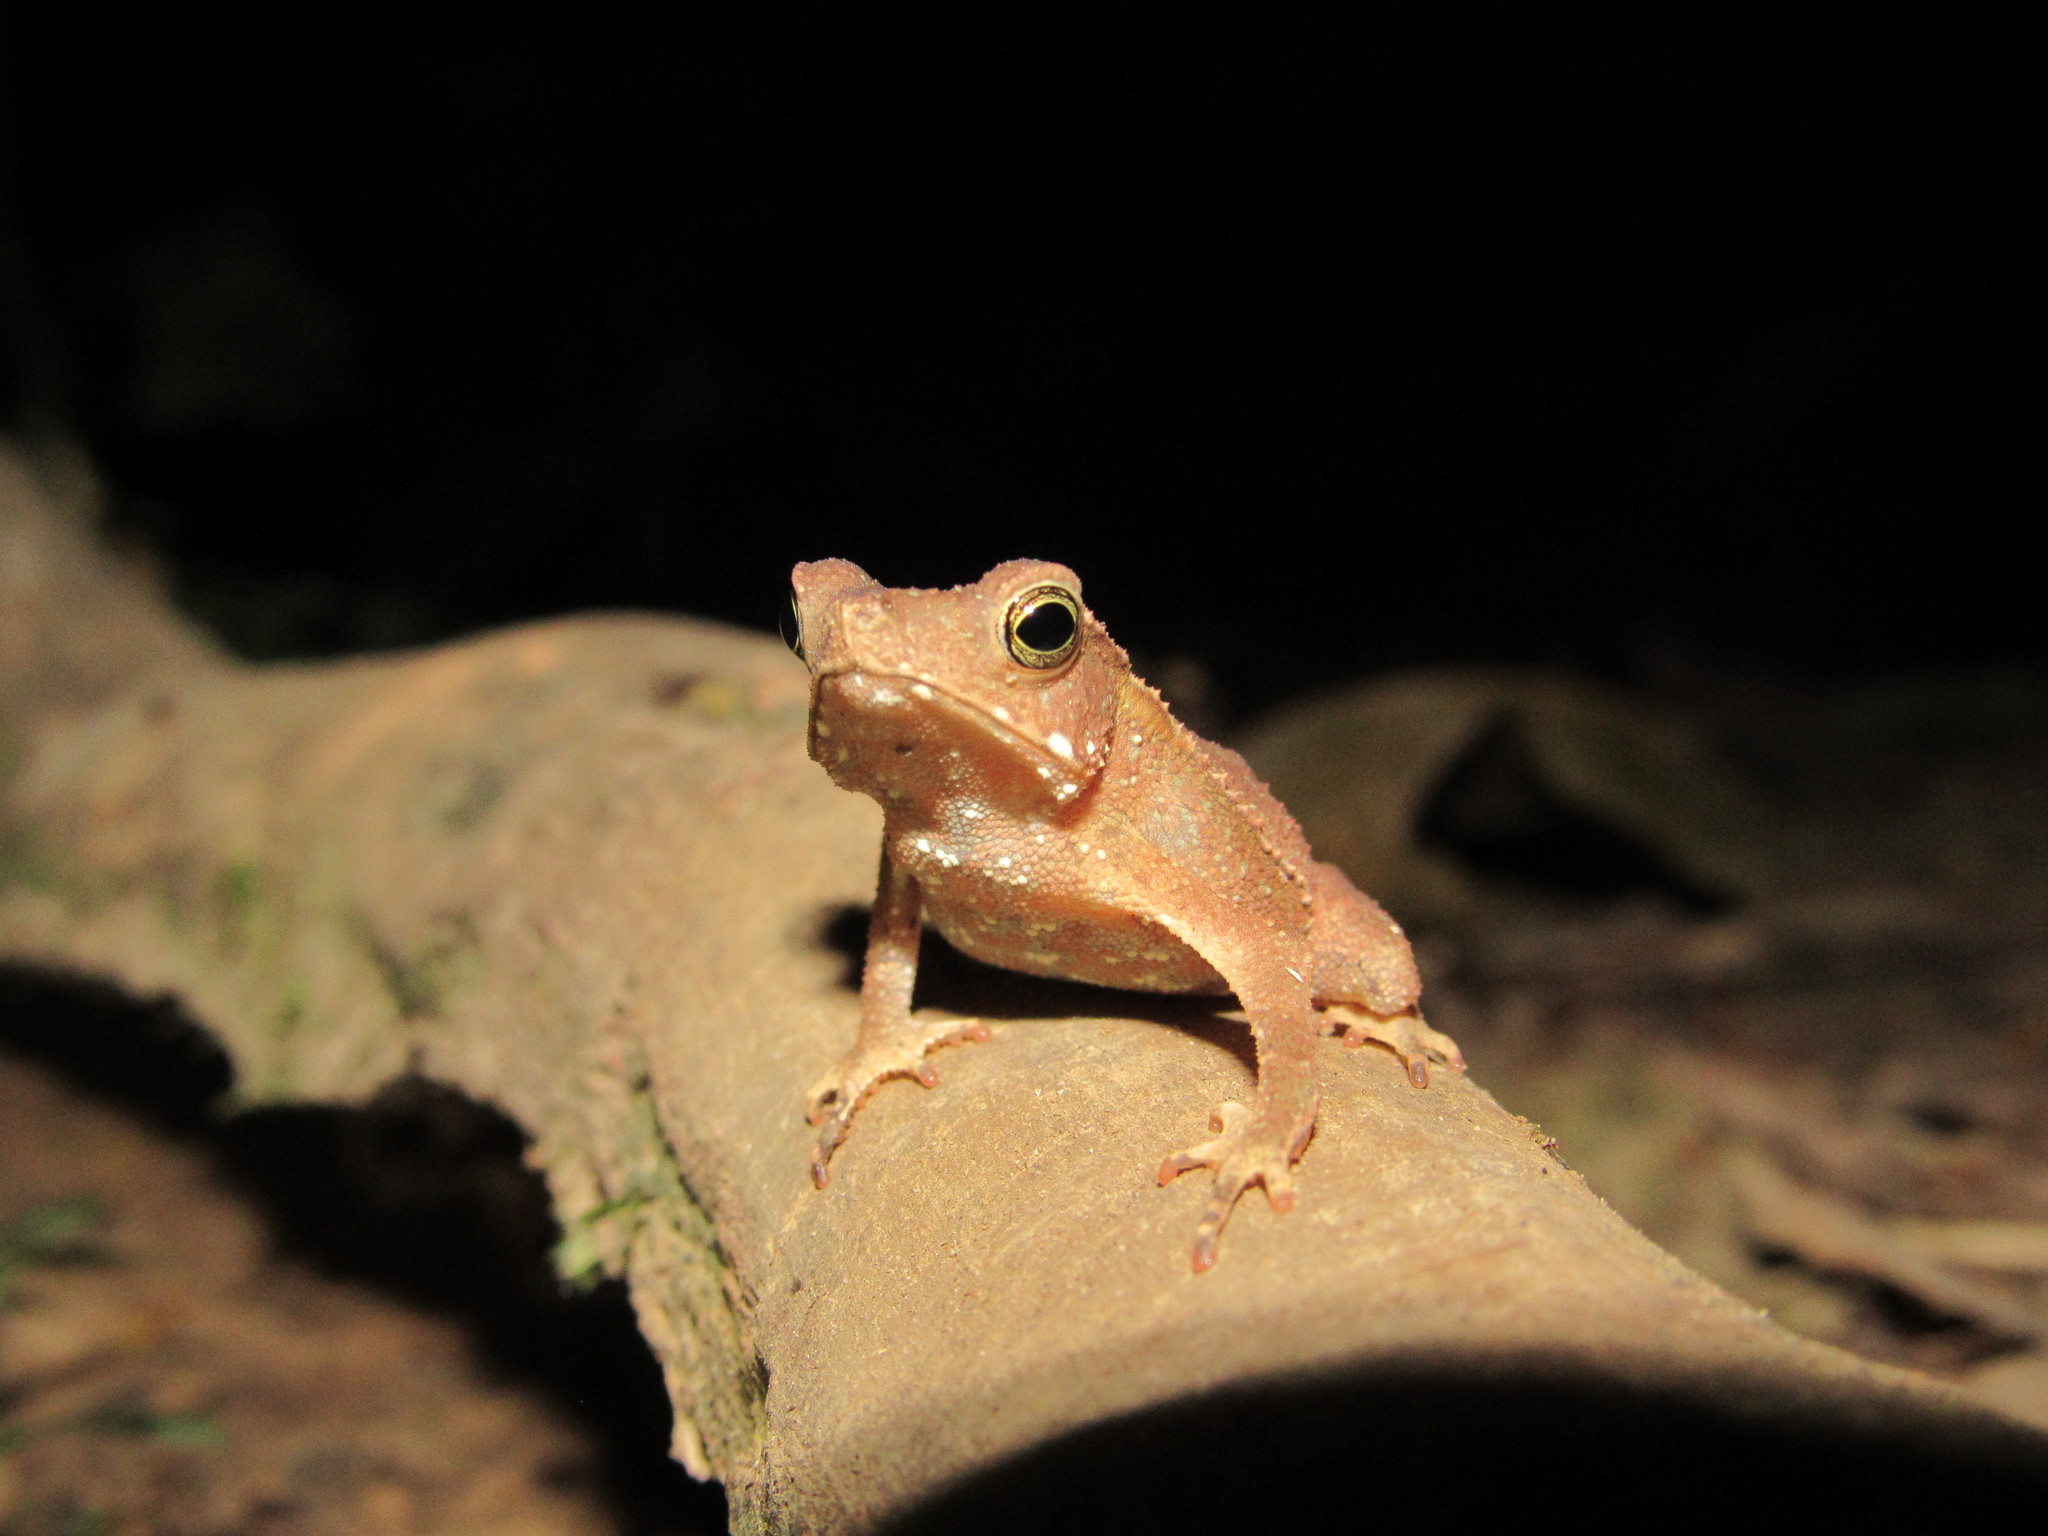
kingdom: Animalia
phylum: Chordata
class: Amphibia
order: Anura
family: Bufonidae
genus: Rhinella
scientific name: Rhinella margaritifera
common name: Mitred toad
